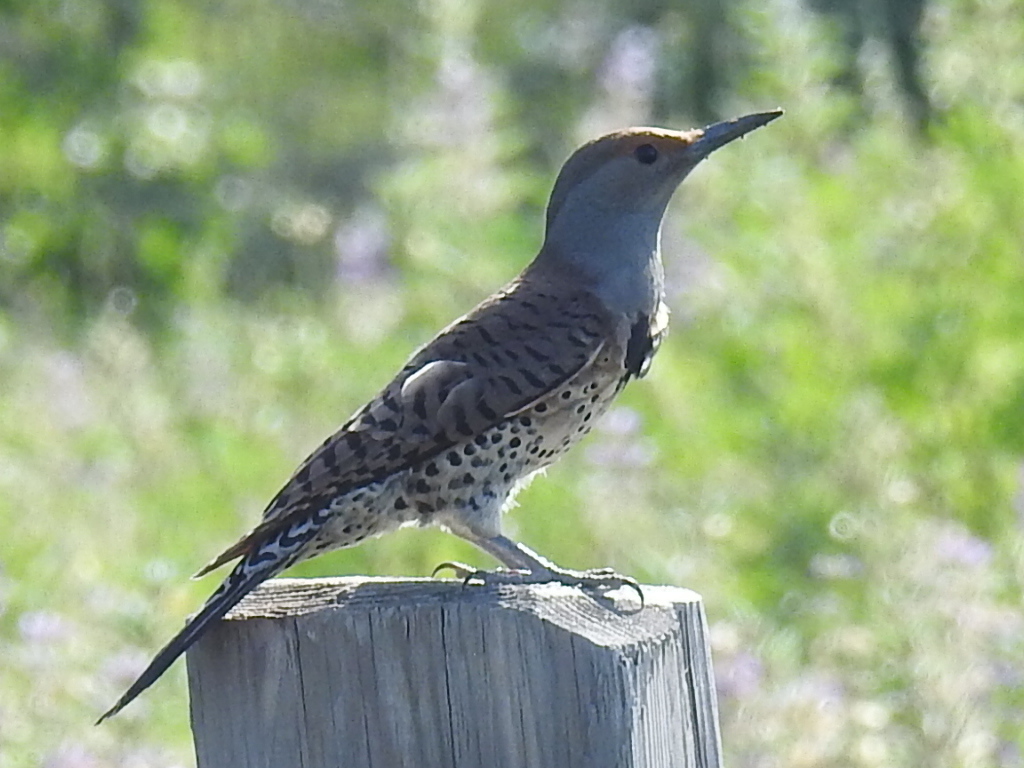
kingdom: Animalia
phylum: Chordata
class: Aves
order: Piciformes
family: Picidae
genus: Colaptes
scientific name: Colaptes auratus
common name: Northern flicker
